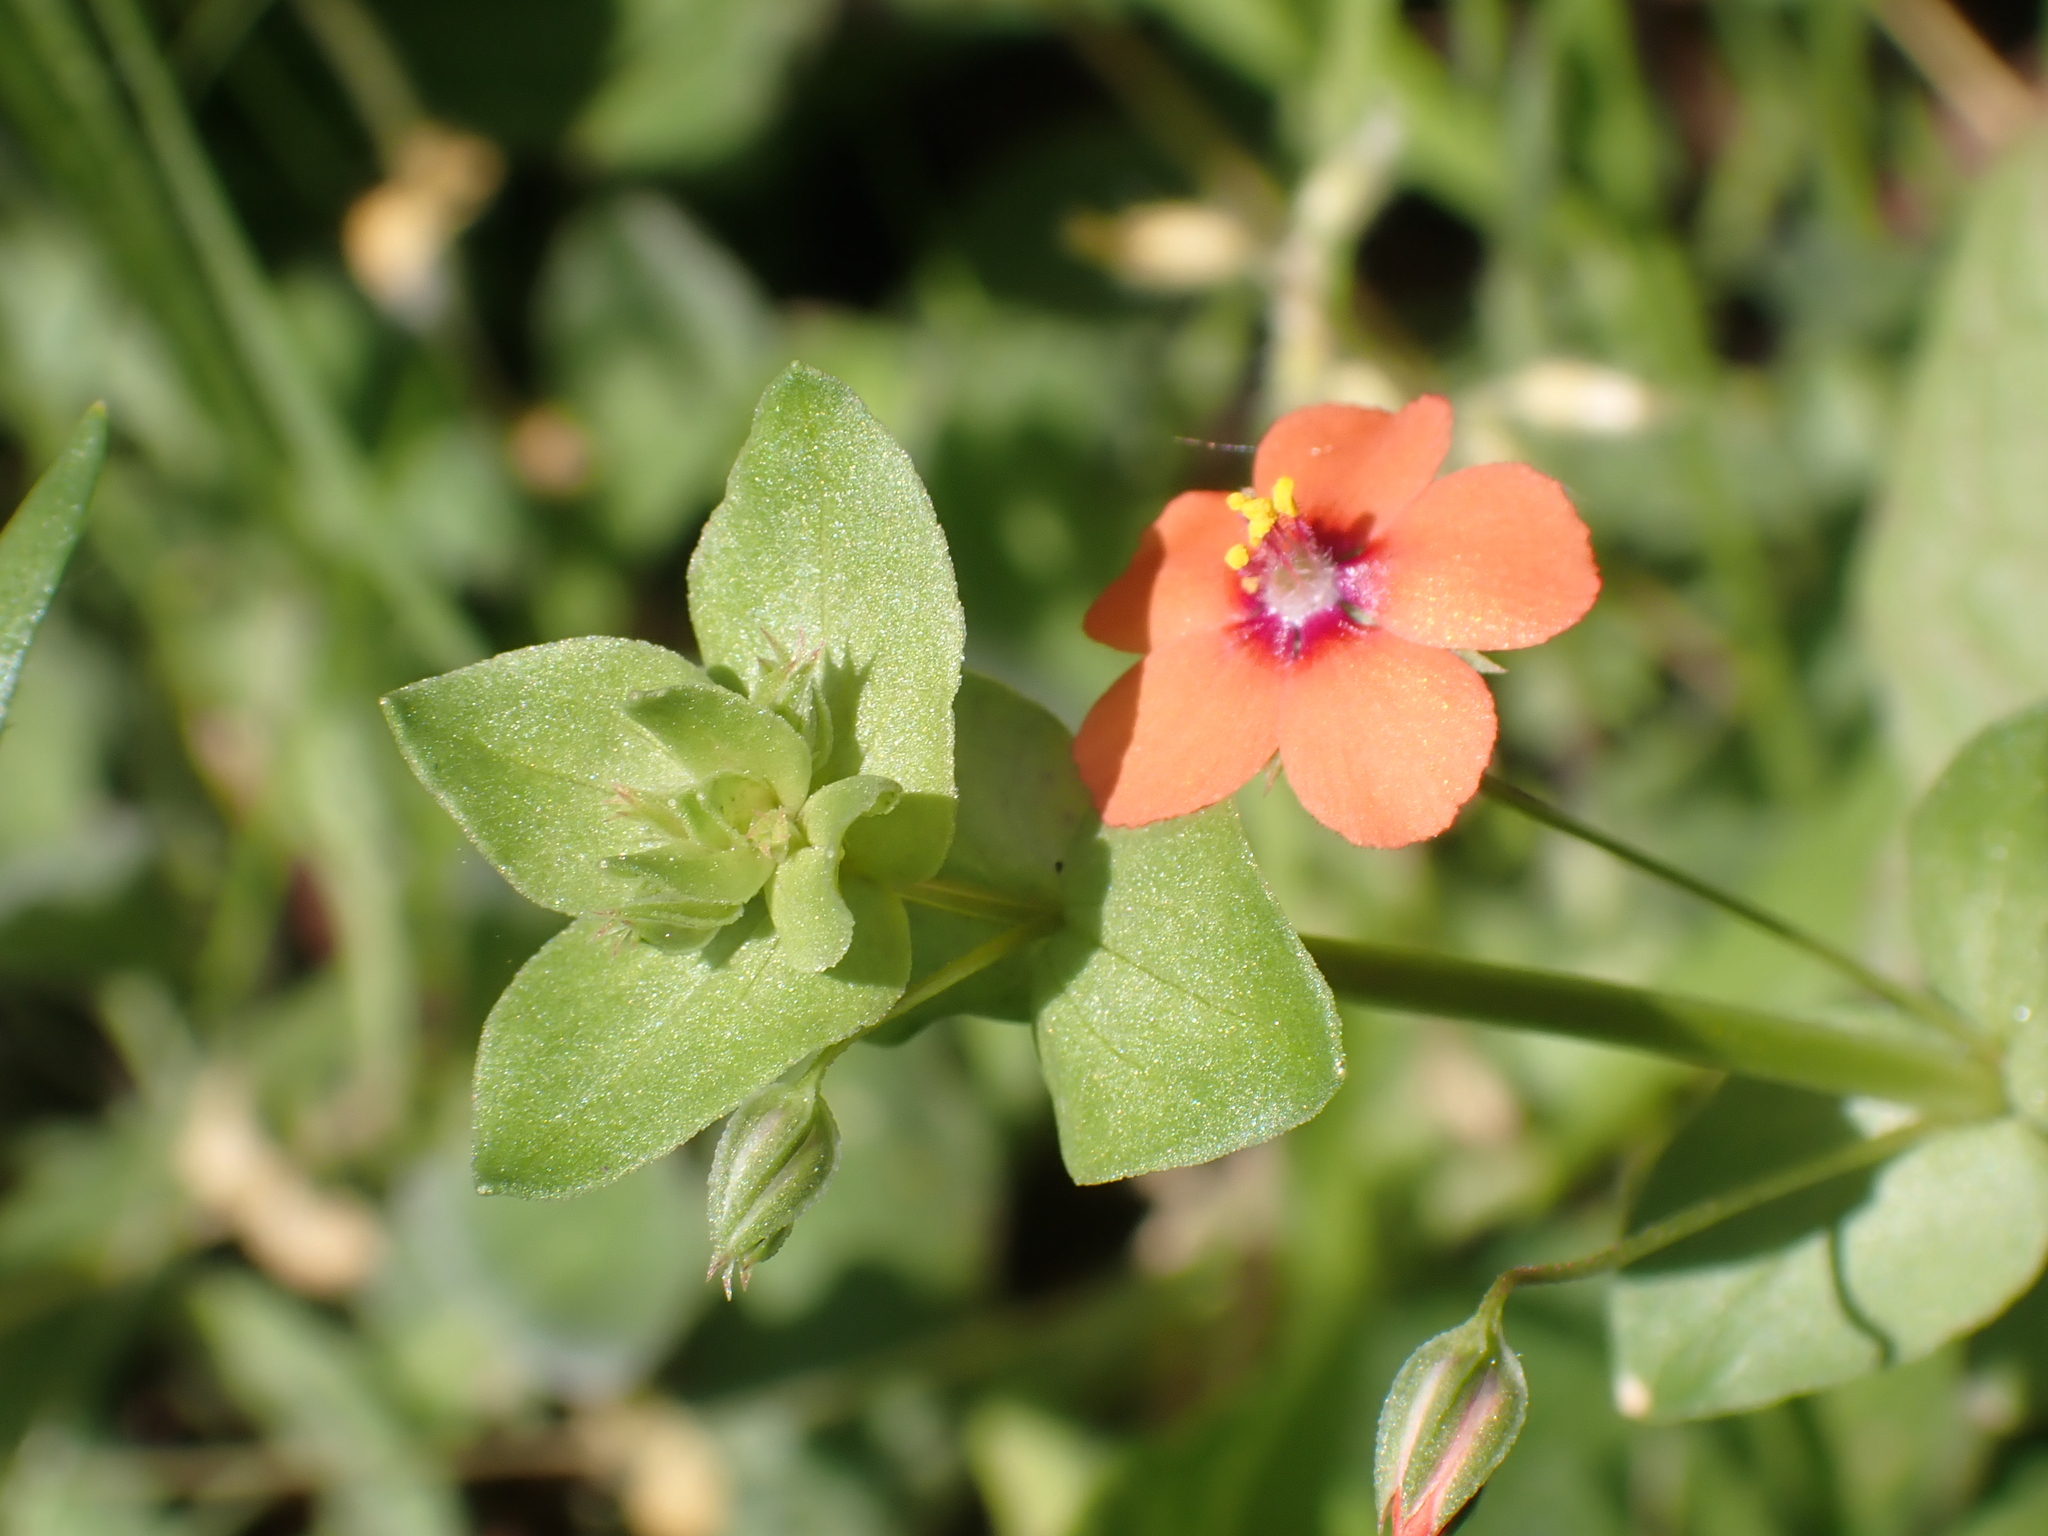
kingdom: Plantae
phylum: Tracheophyta
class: Magnoliopsida
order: Ericales
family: Primulaceae
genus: Lysimachia
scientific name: Lysimachia arvensis
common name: Scarlet pimpernel
